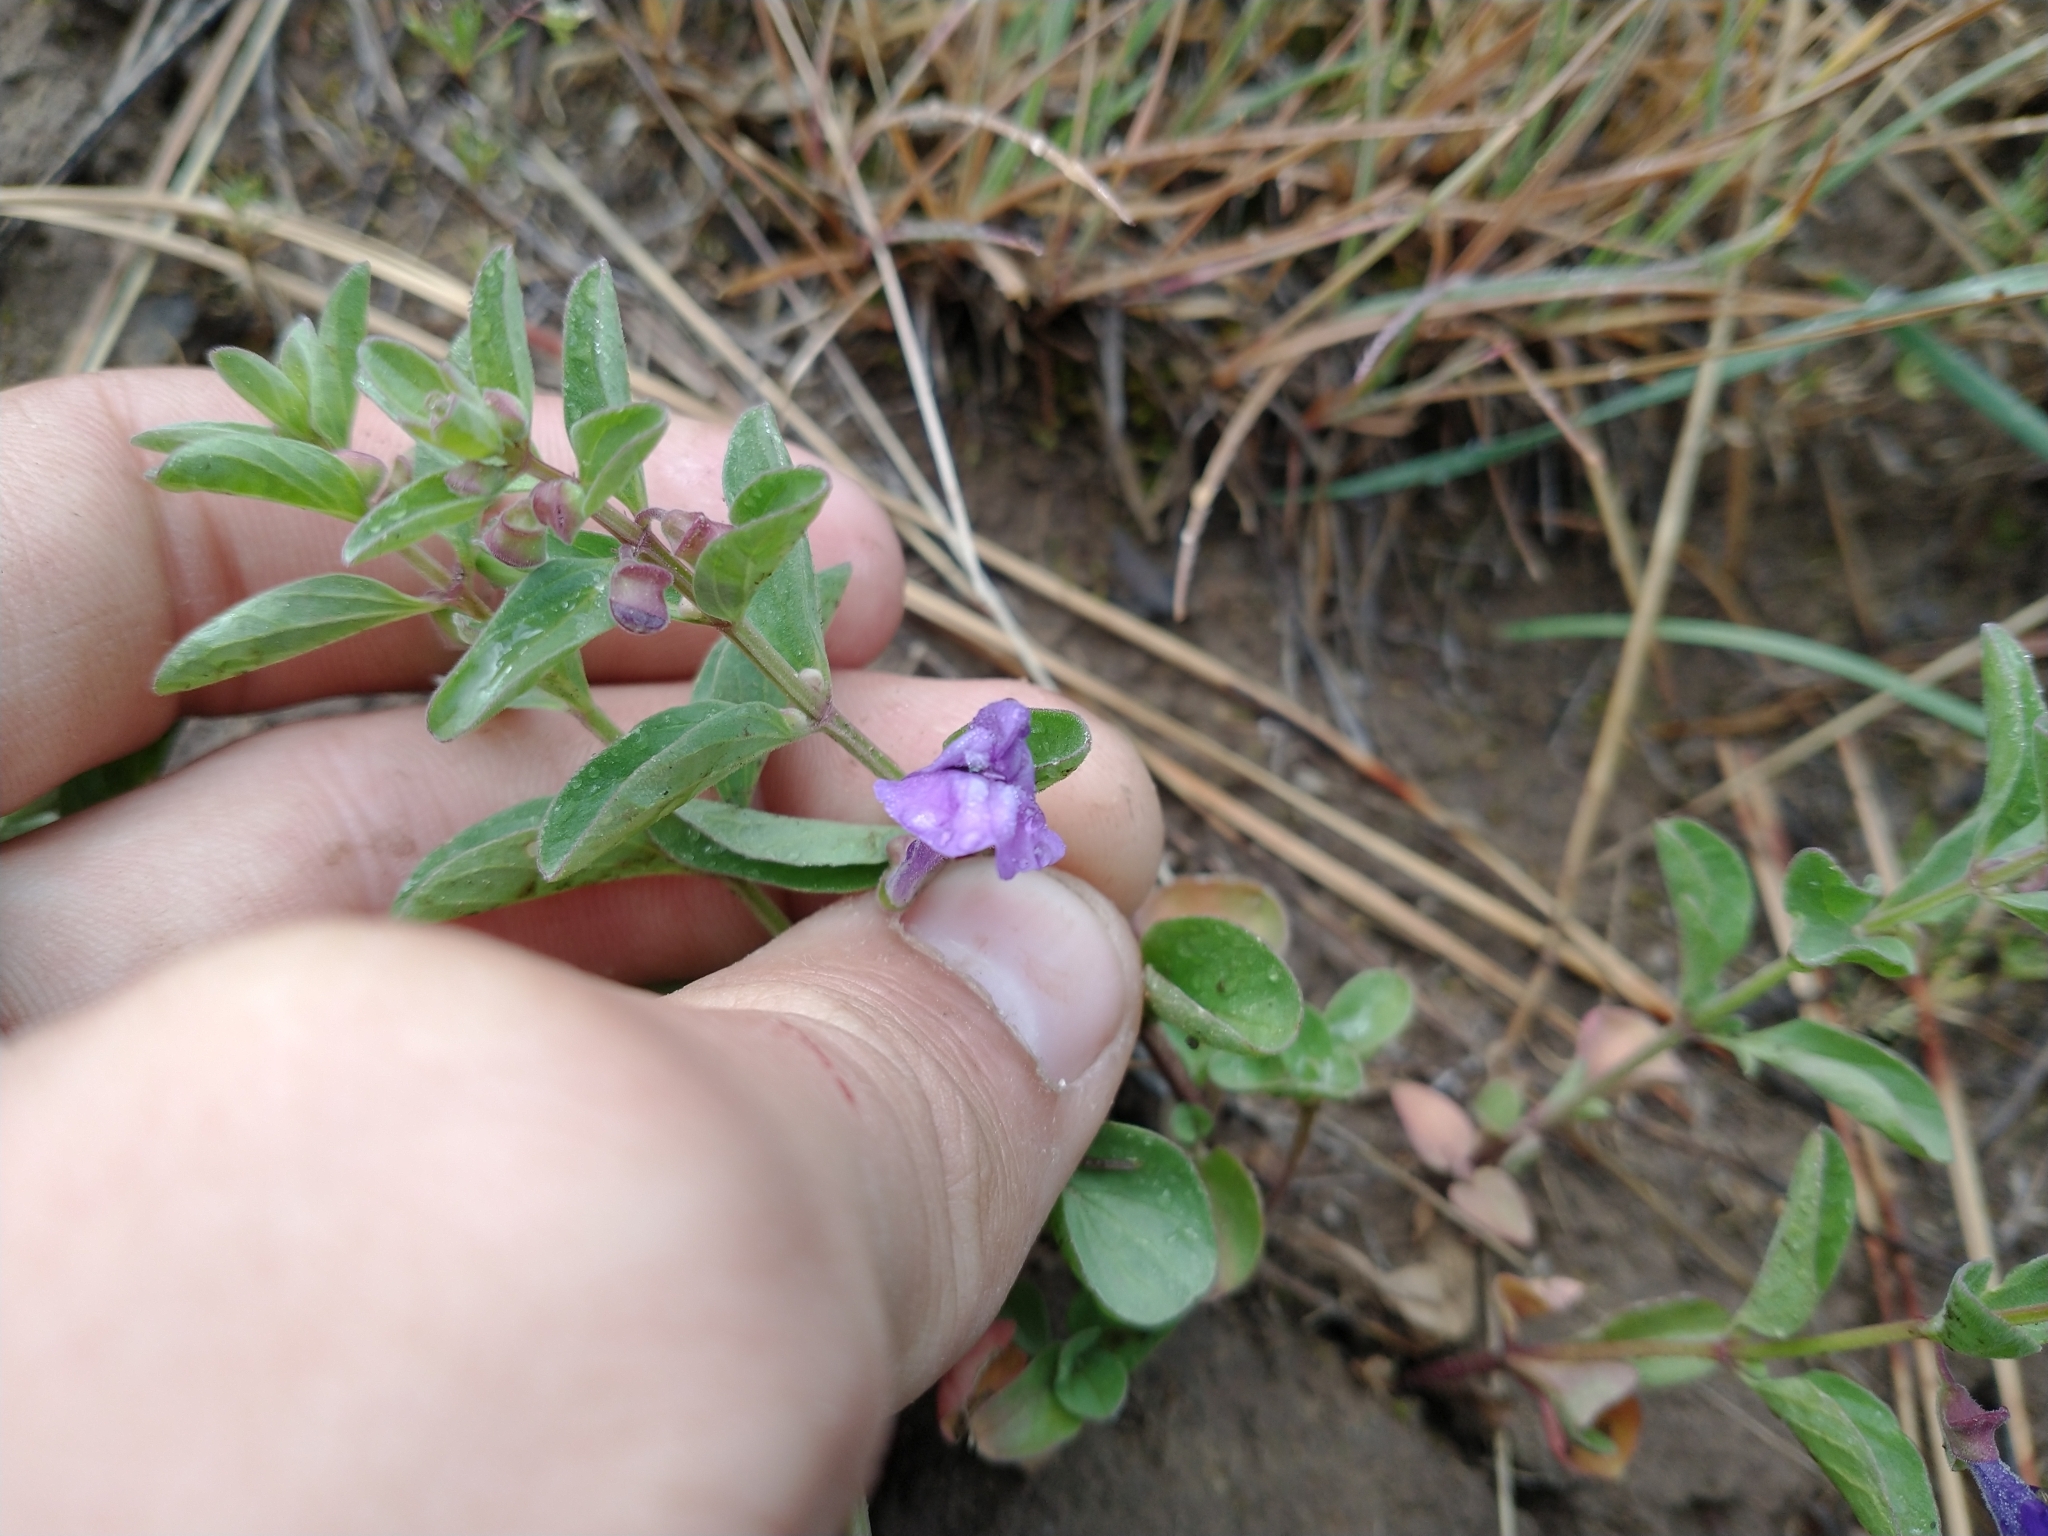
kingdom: Plantae
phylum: Tracheophyta
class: Magnoliopsida
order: Lamiales
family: Lamiaceae
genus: Scutellaria
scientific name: Scutellaria angustifolia
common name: Narrow-leaved skullcap
